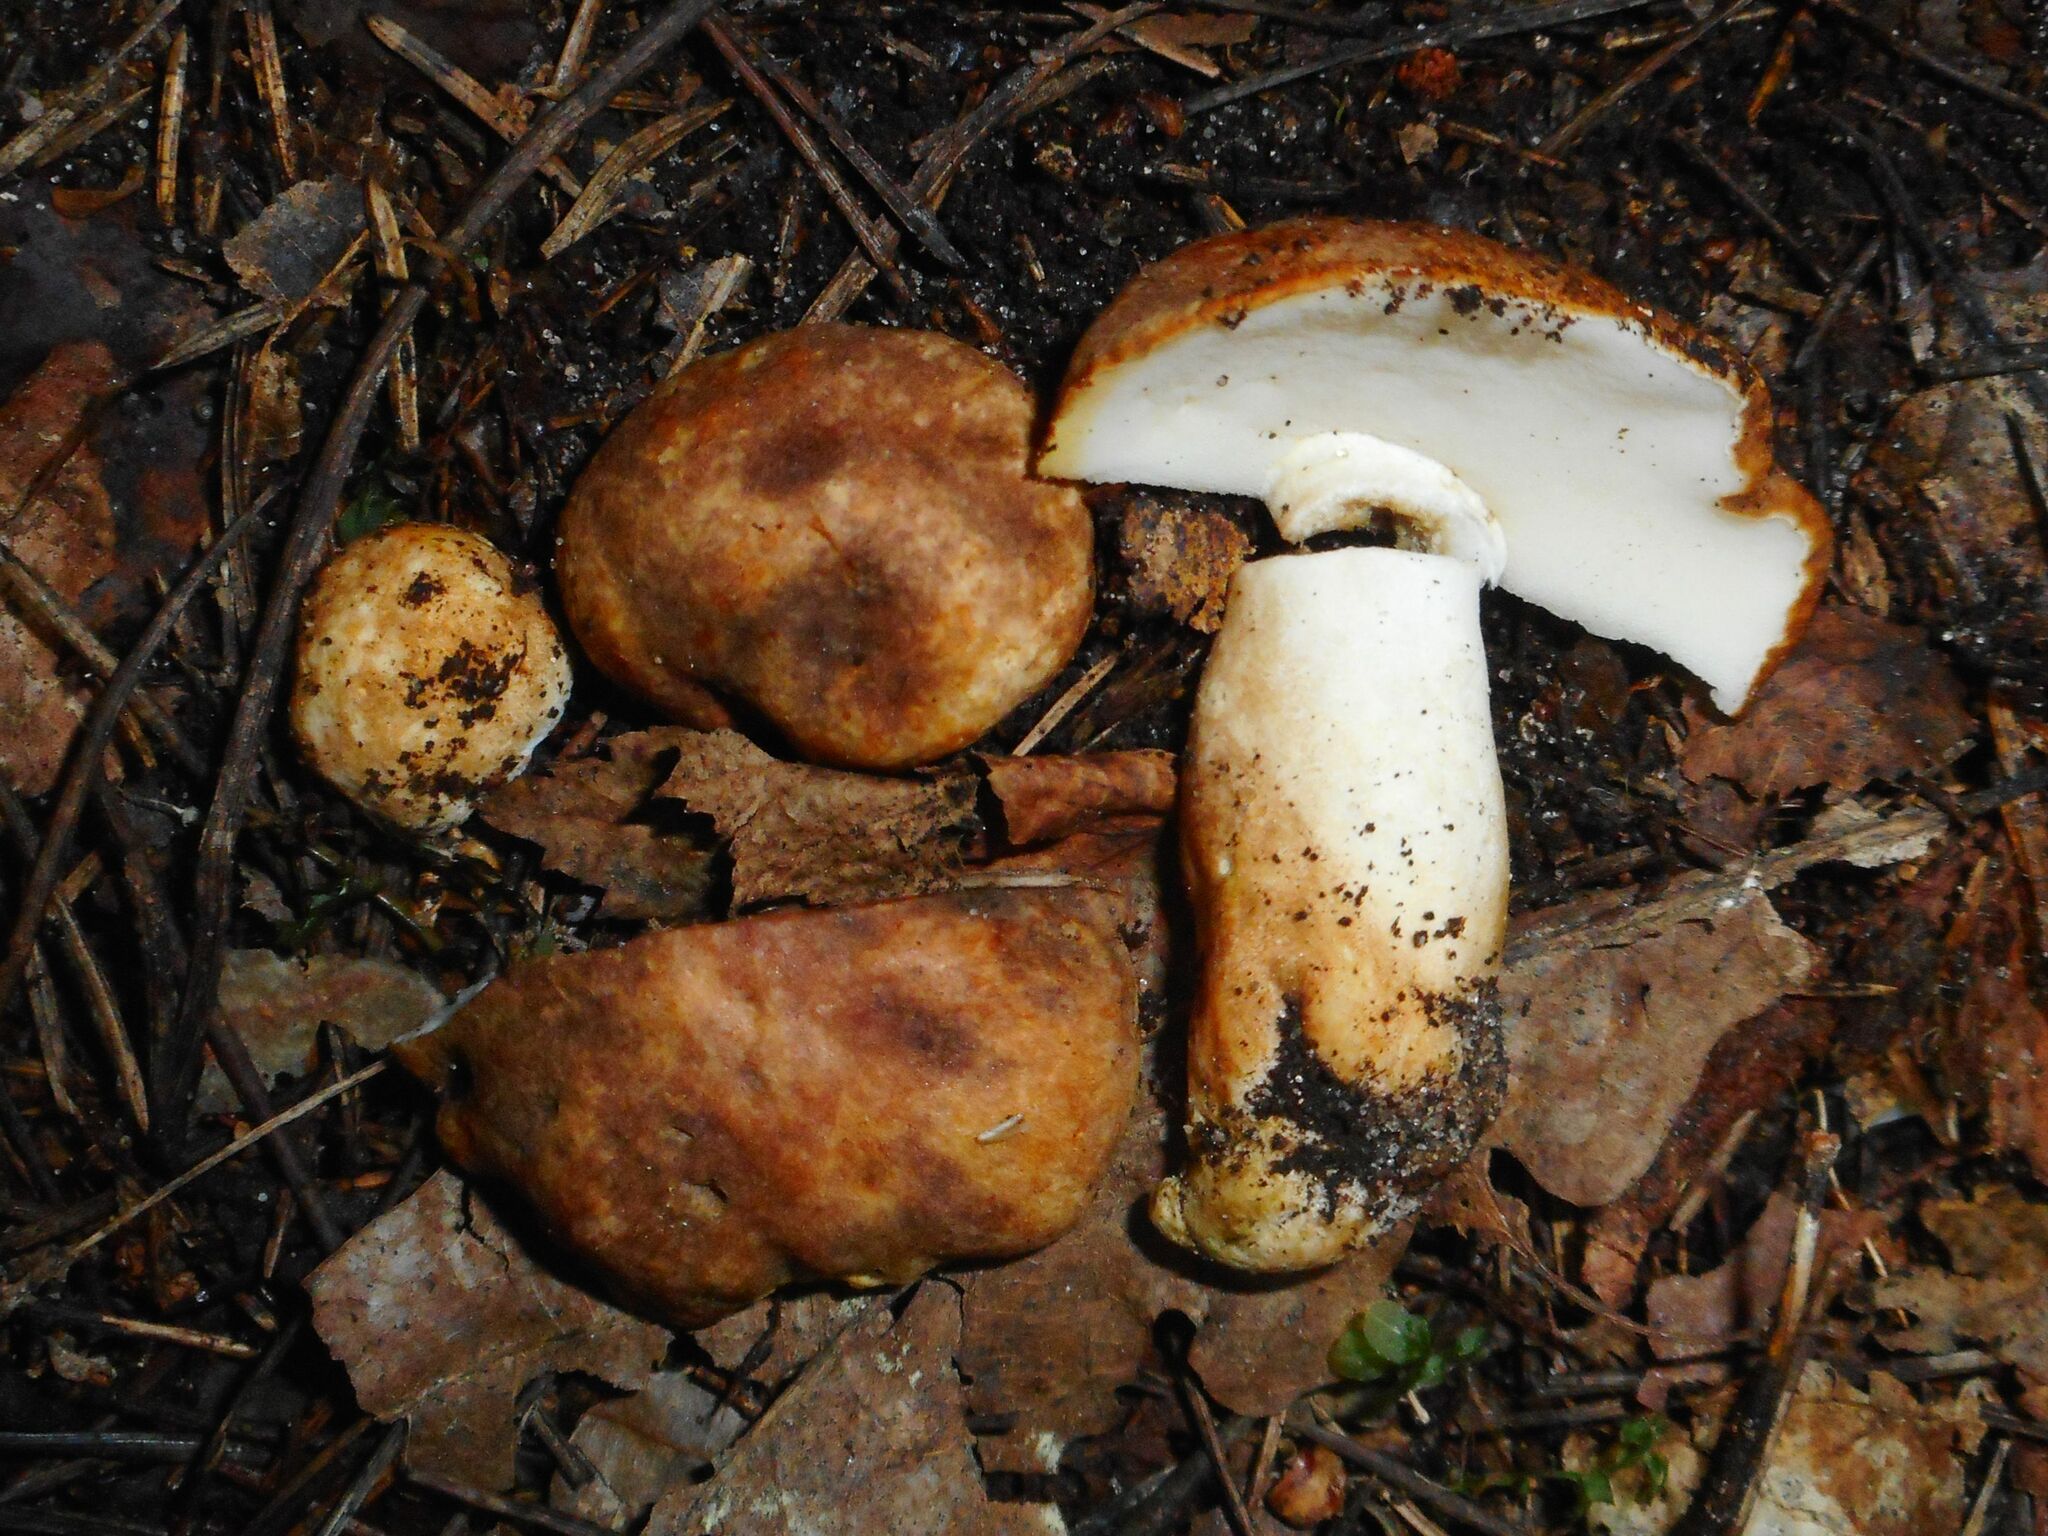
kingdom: Fungi
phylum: Basidiomycota
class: Agaricomycetes
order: Boletales
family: Gyroporaceae
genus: Gyroporus
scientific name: Gyroporus castaneus
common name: Chestnut bolete
